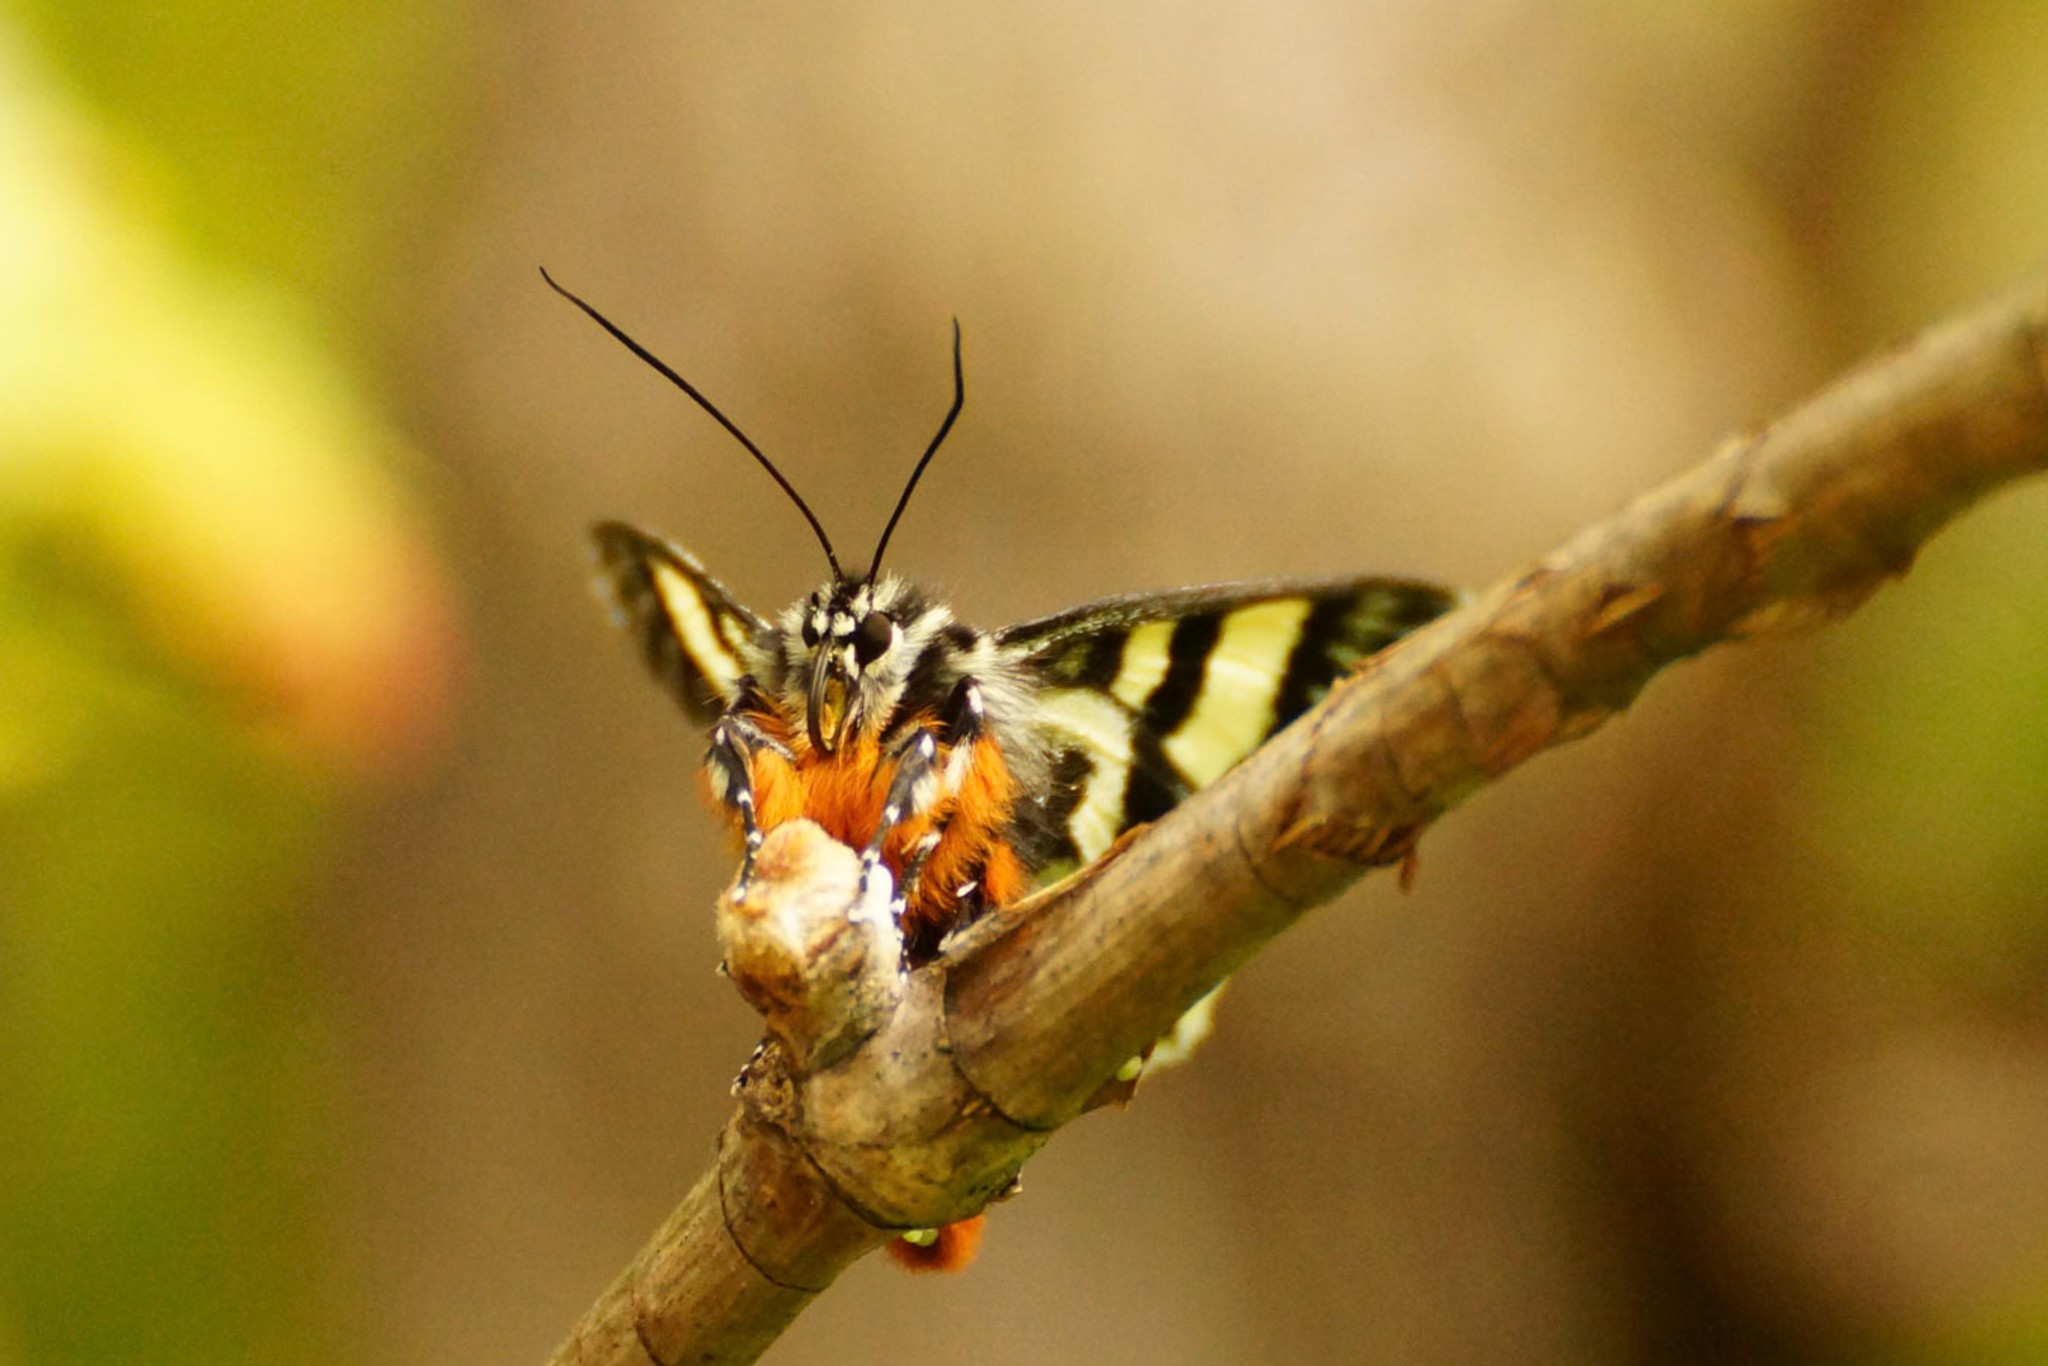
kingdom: Animalia
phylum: Arthropoda
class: Insecta
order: Lepidoptera
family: Noctuidae
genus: Phalaenoides
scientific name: Phalaenoides glycinae
